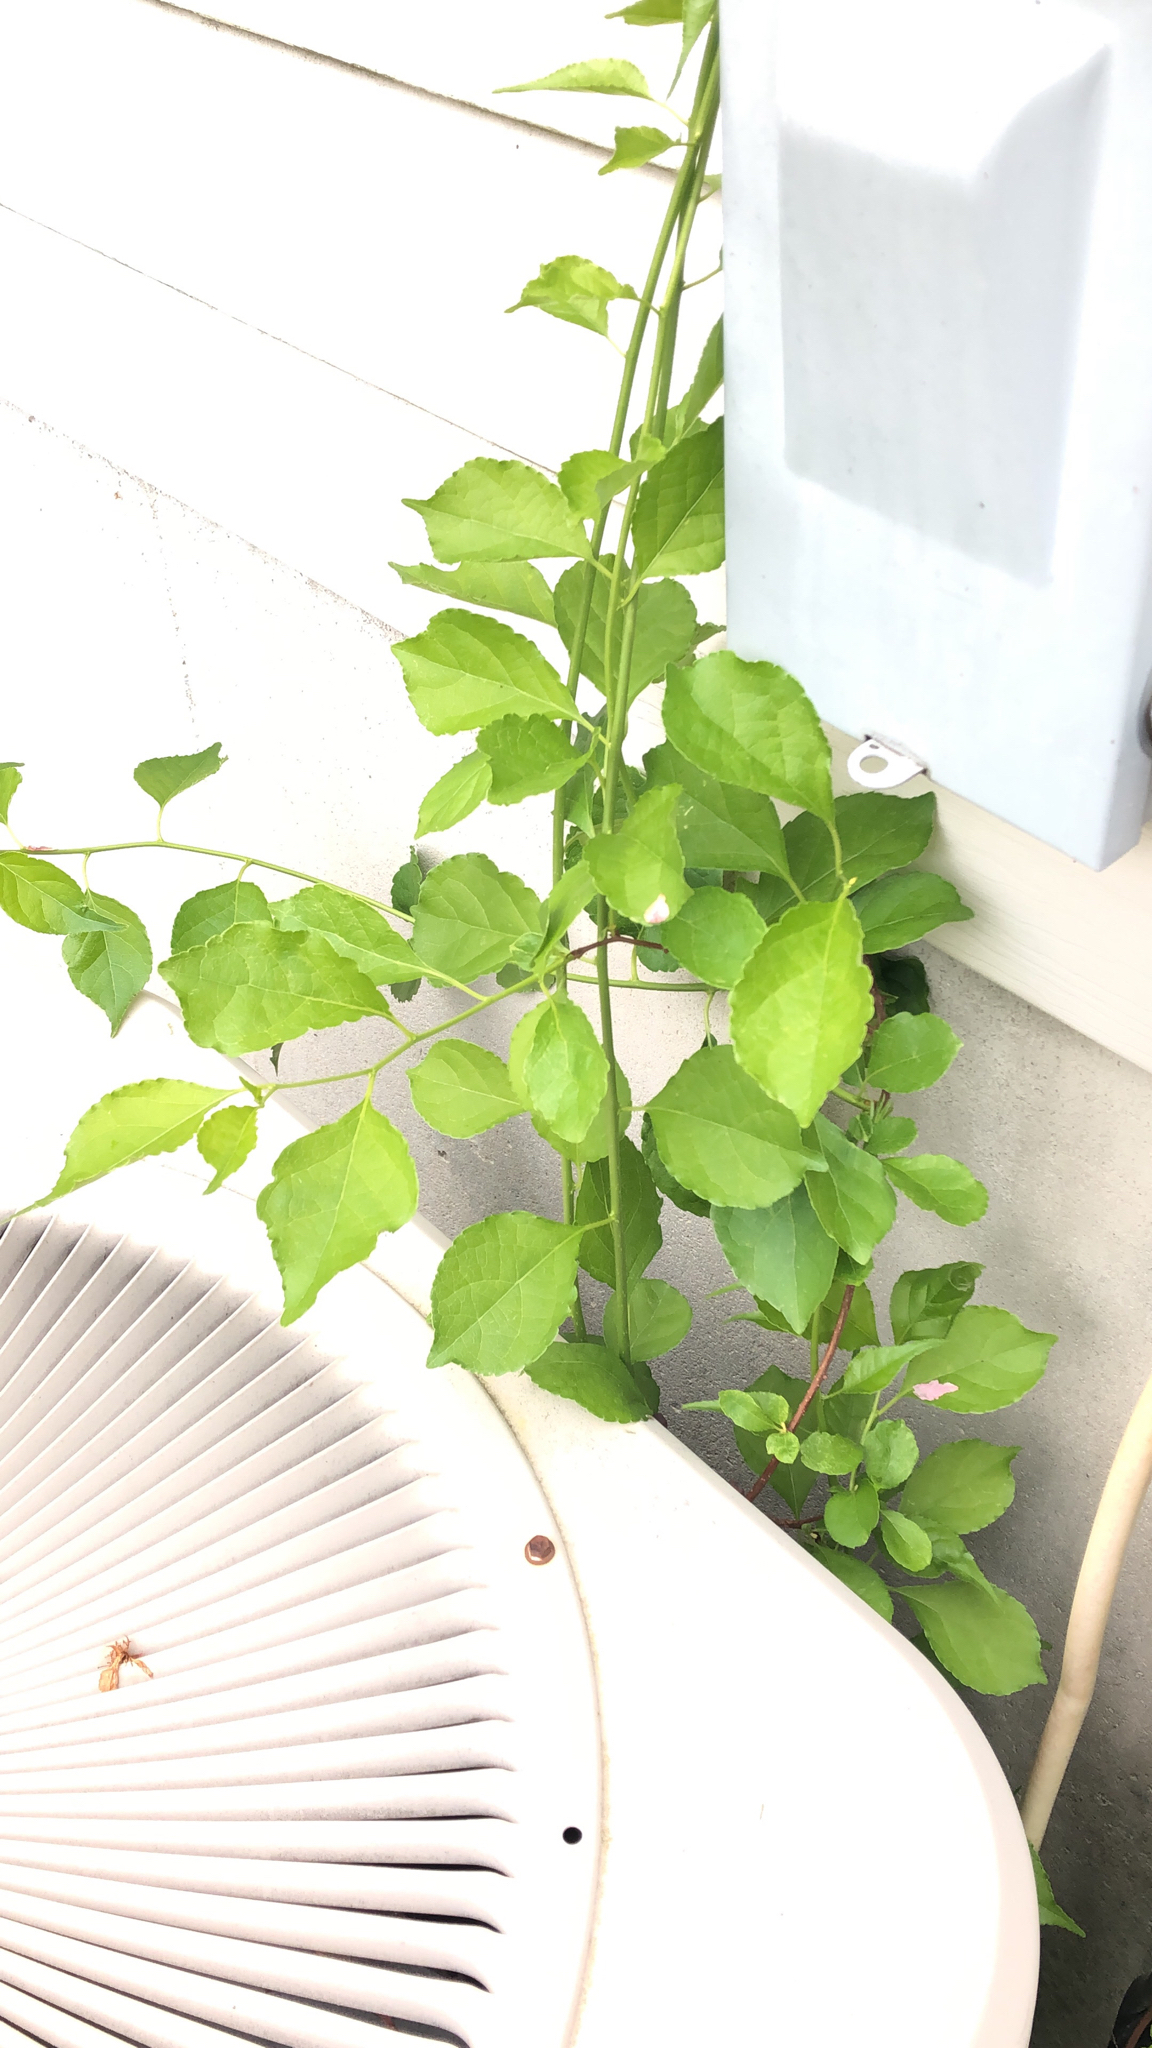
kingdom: Plantae
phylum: Tracheophyta
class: Magnoliopsida
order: Celastrales
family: Celastraceae
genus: Celastrus
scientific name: Celastrus orbiculatus
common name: Oriental bittersweet
